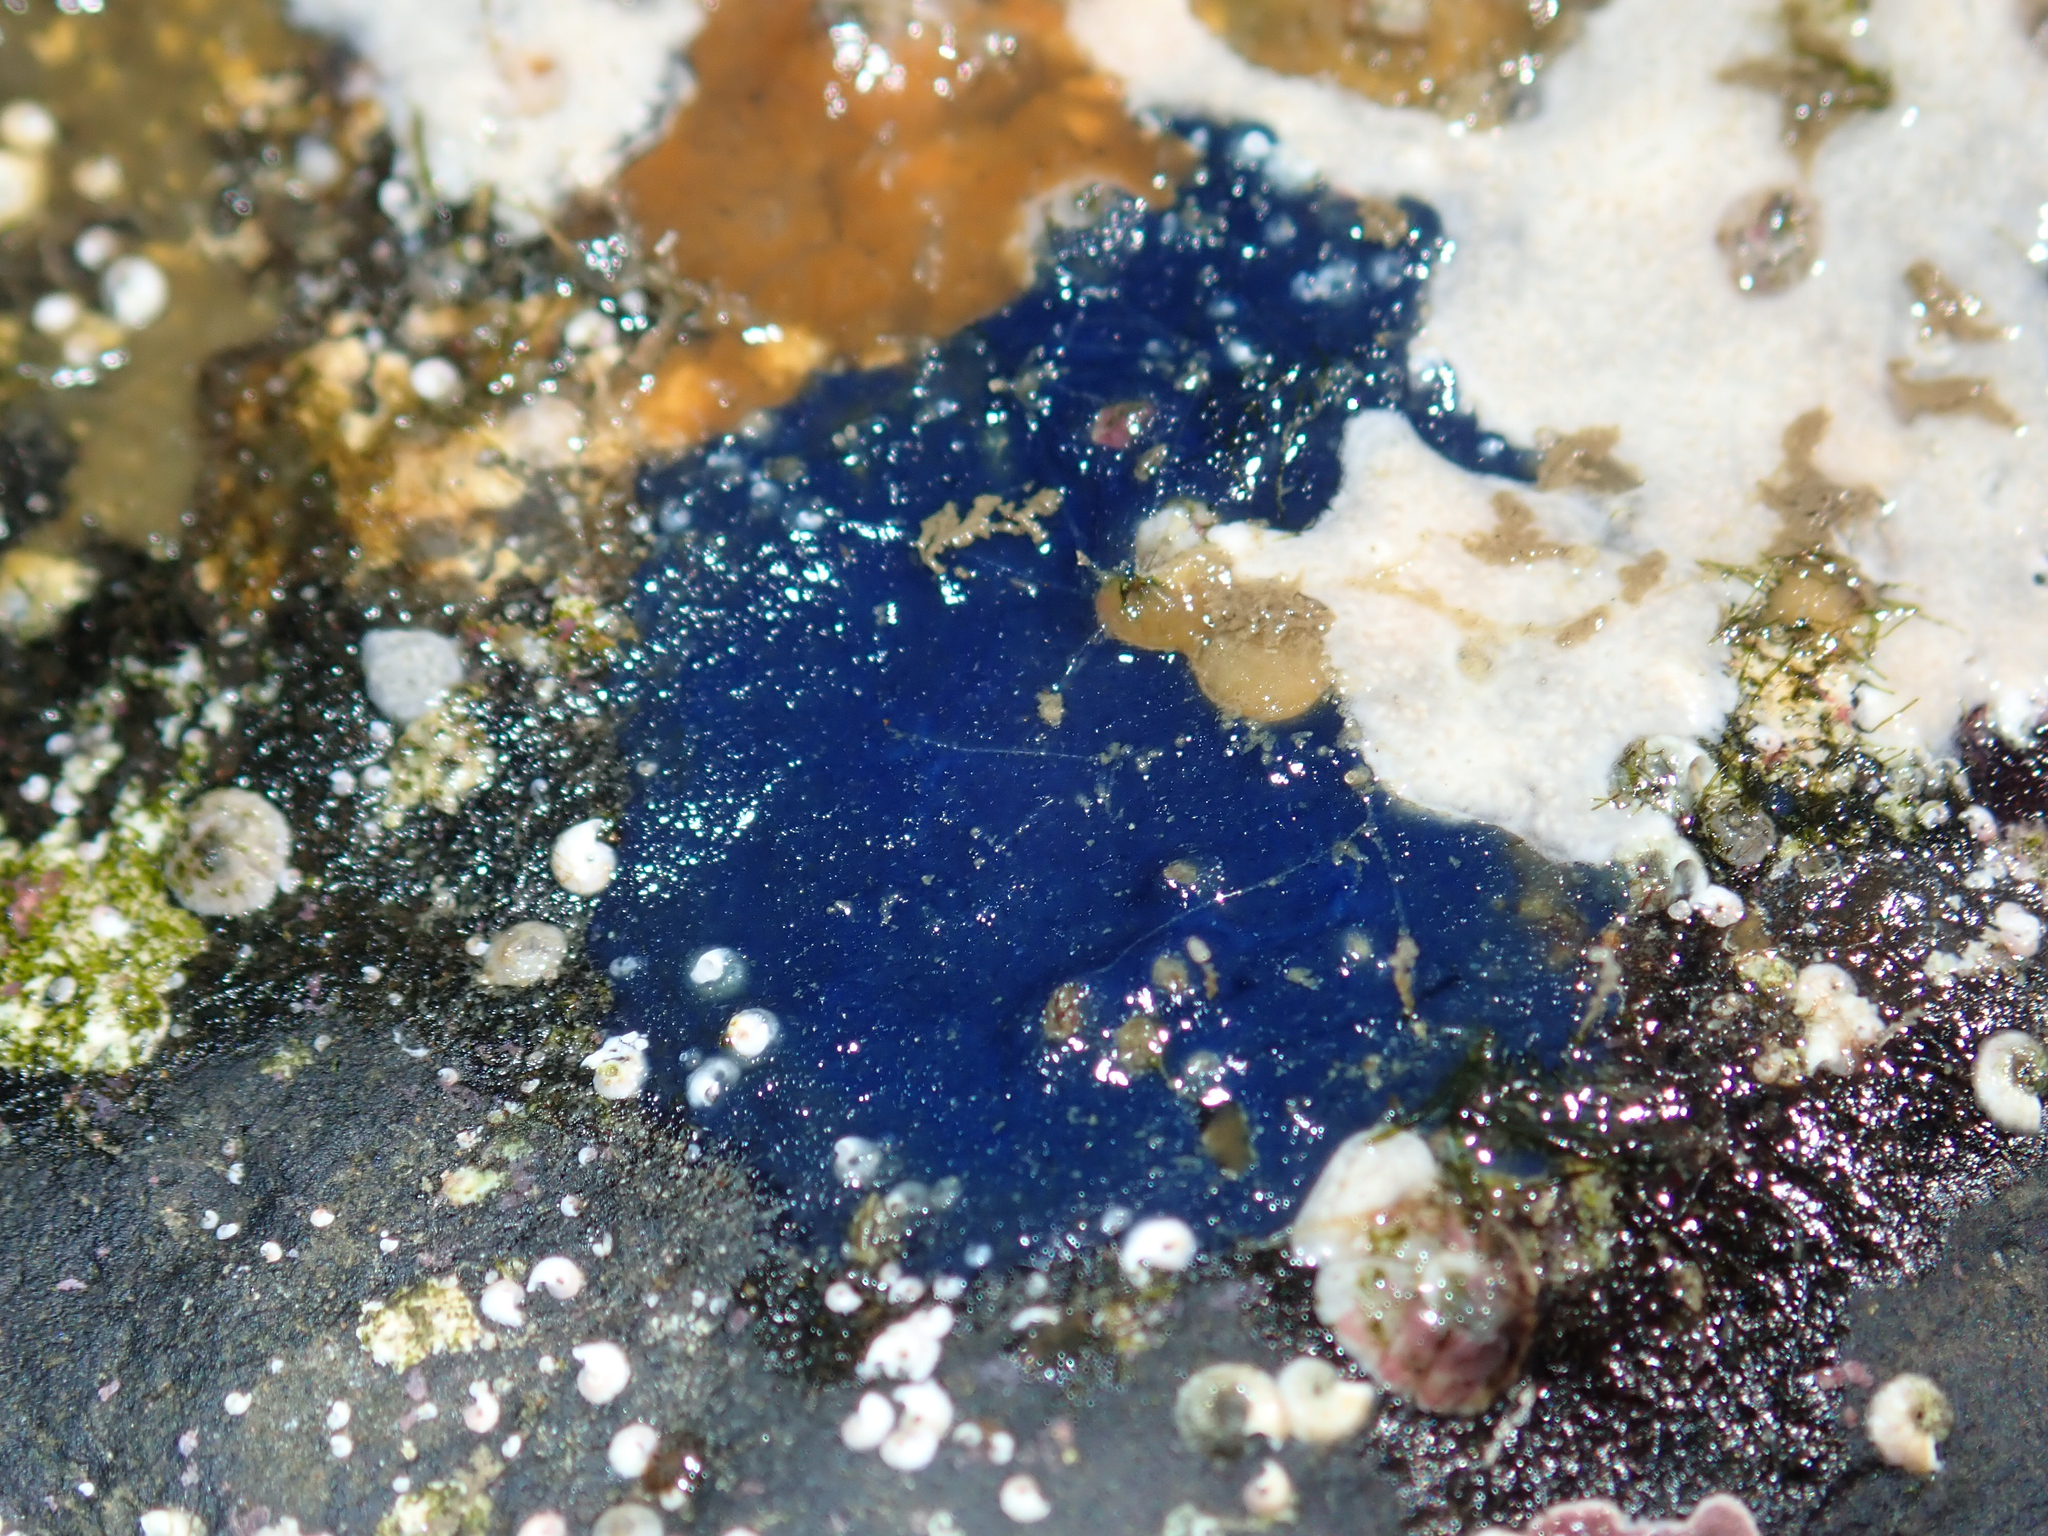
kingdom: Animalia
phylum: Porifera
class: Demospongiae
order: Suberitida
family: Suberitidae
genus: Terpios
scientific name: Terpios gelatinosus
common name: Blue encrusting sponge
